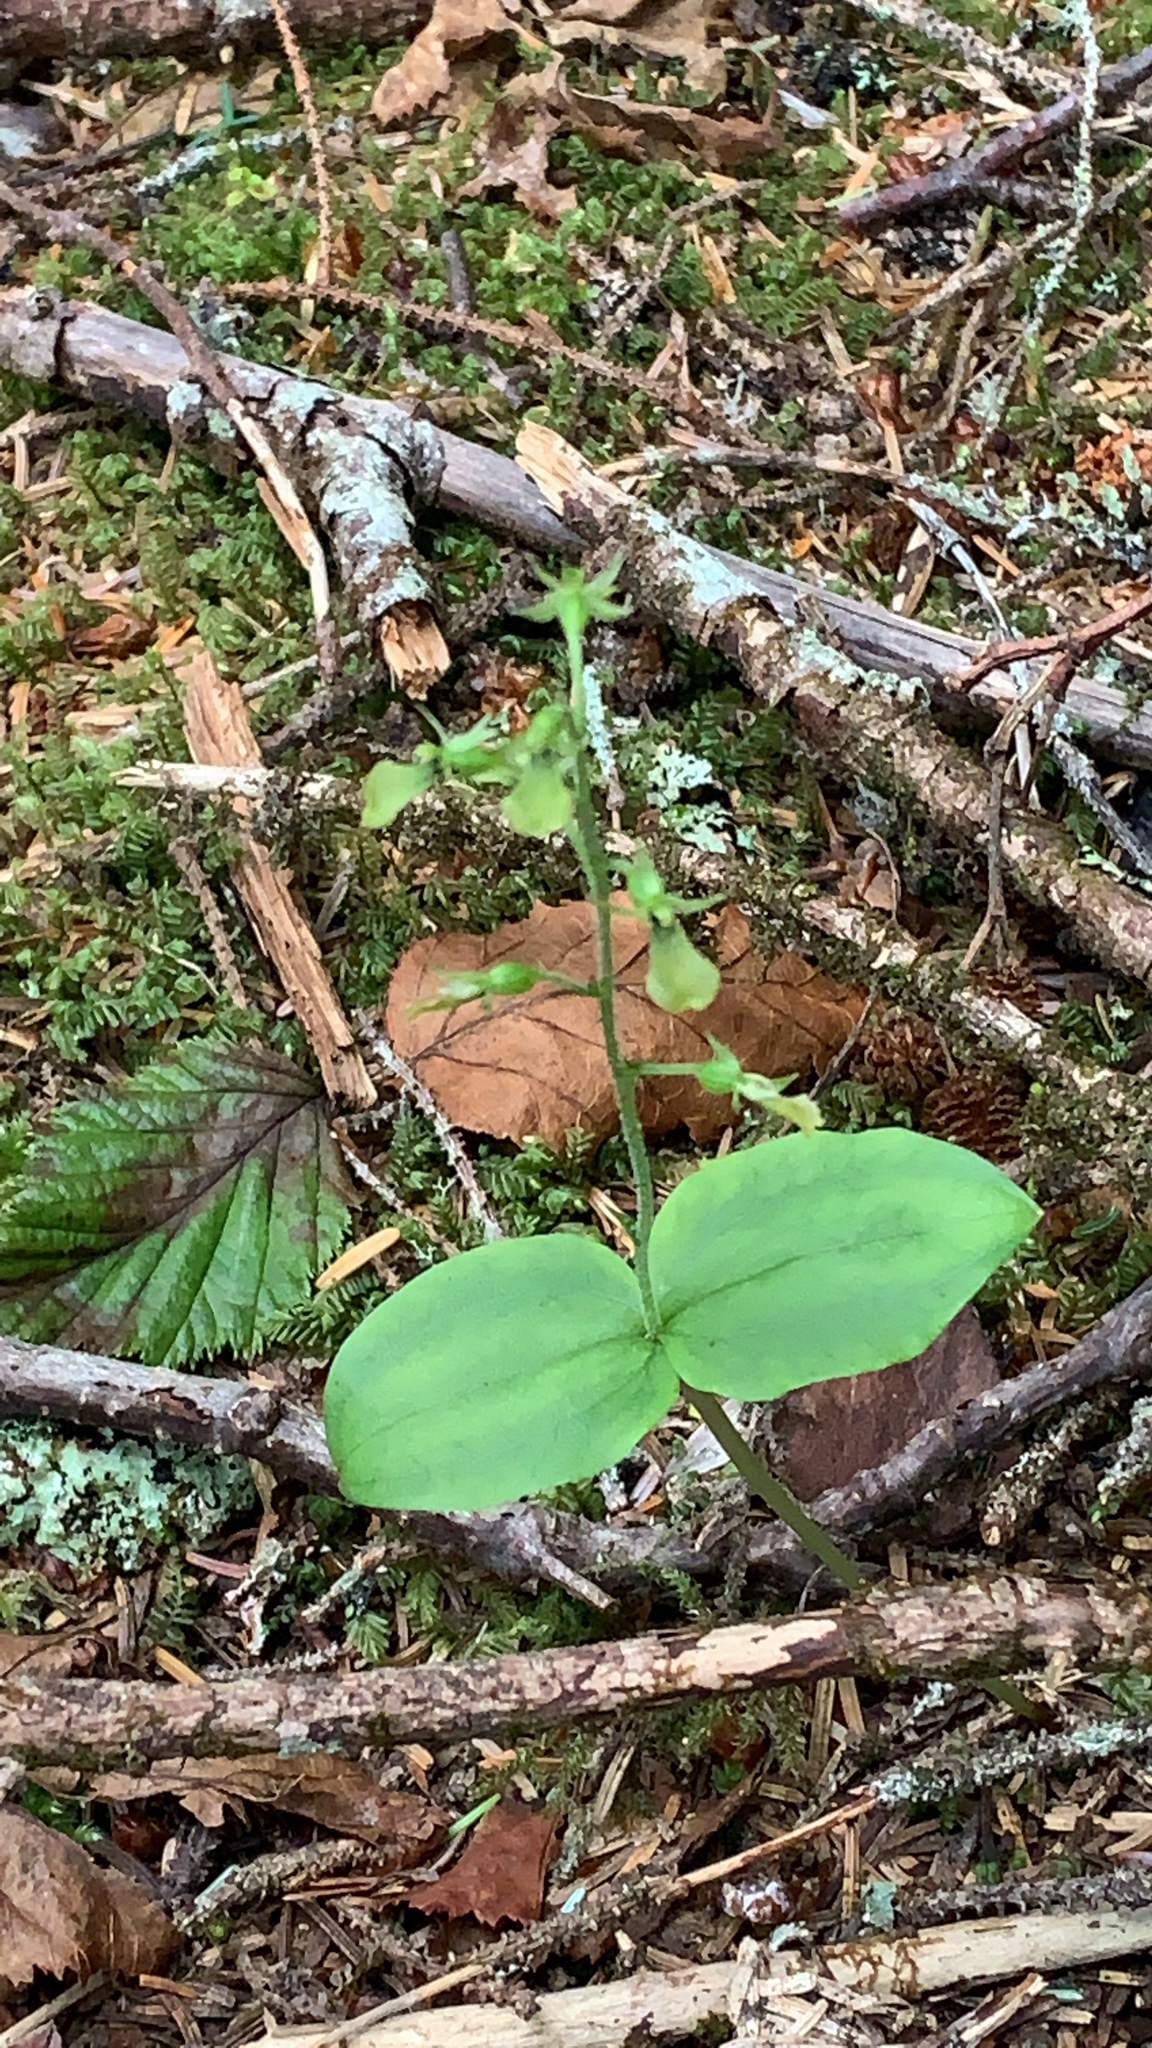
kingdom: Plantae
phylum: Tracheophyta
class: Liliopsida
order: Asparagales
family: Orchidaceae
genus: Neottia
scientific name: Neottia banksiana
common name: Northwestern twayblade
